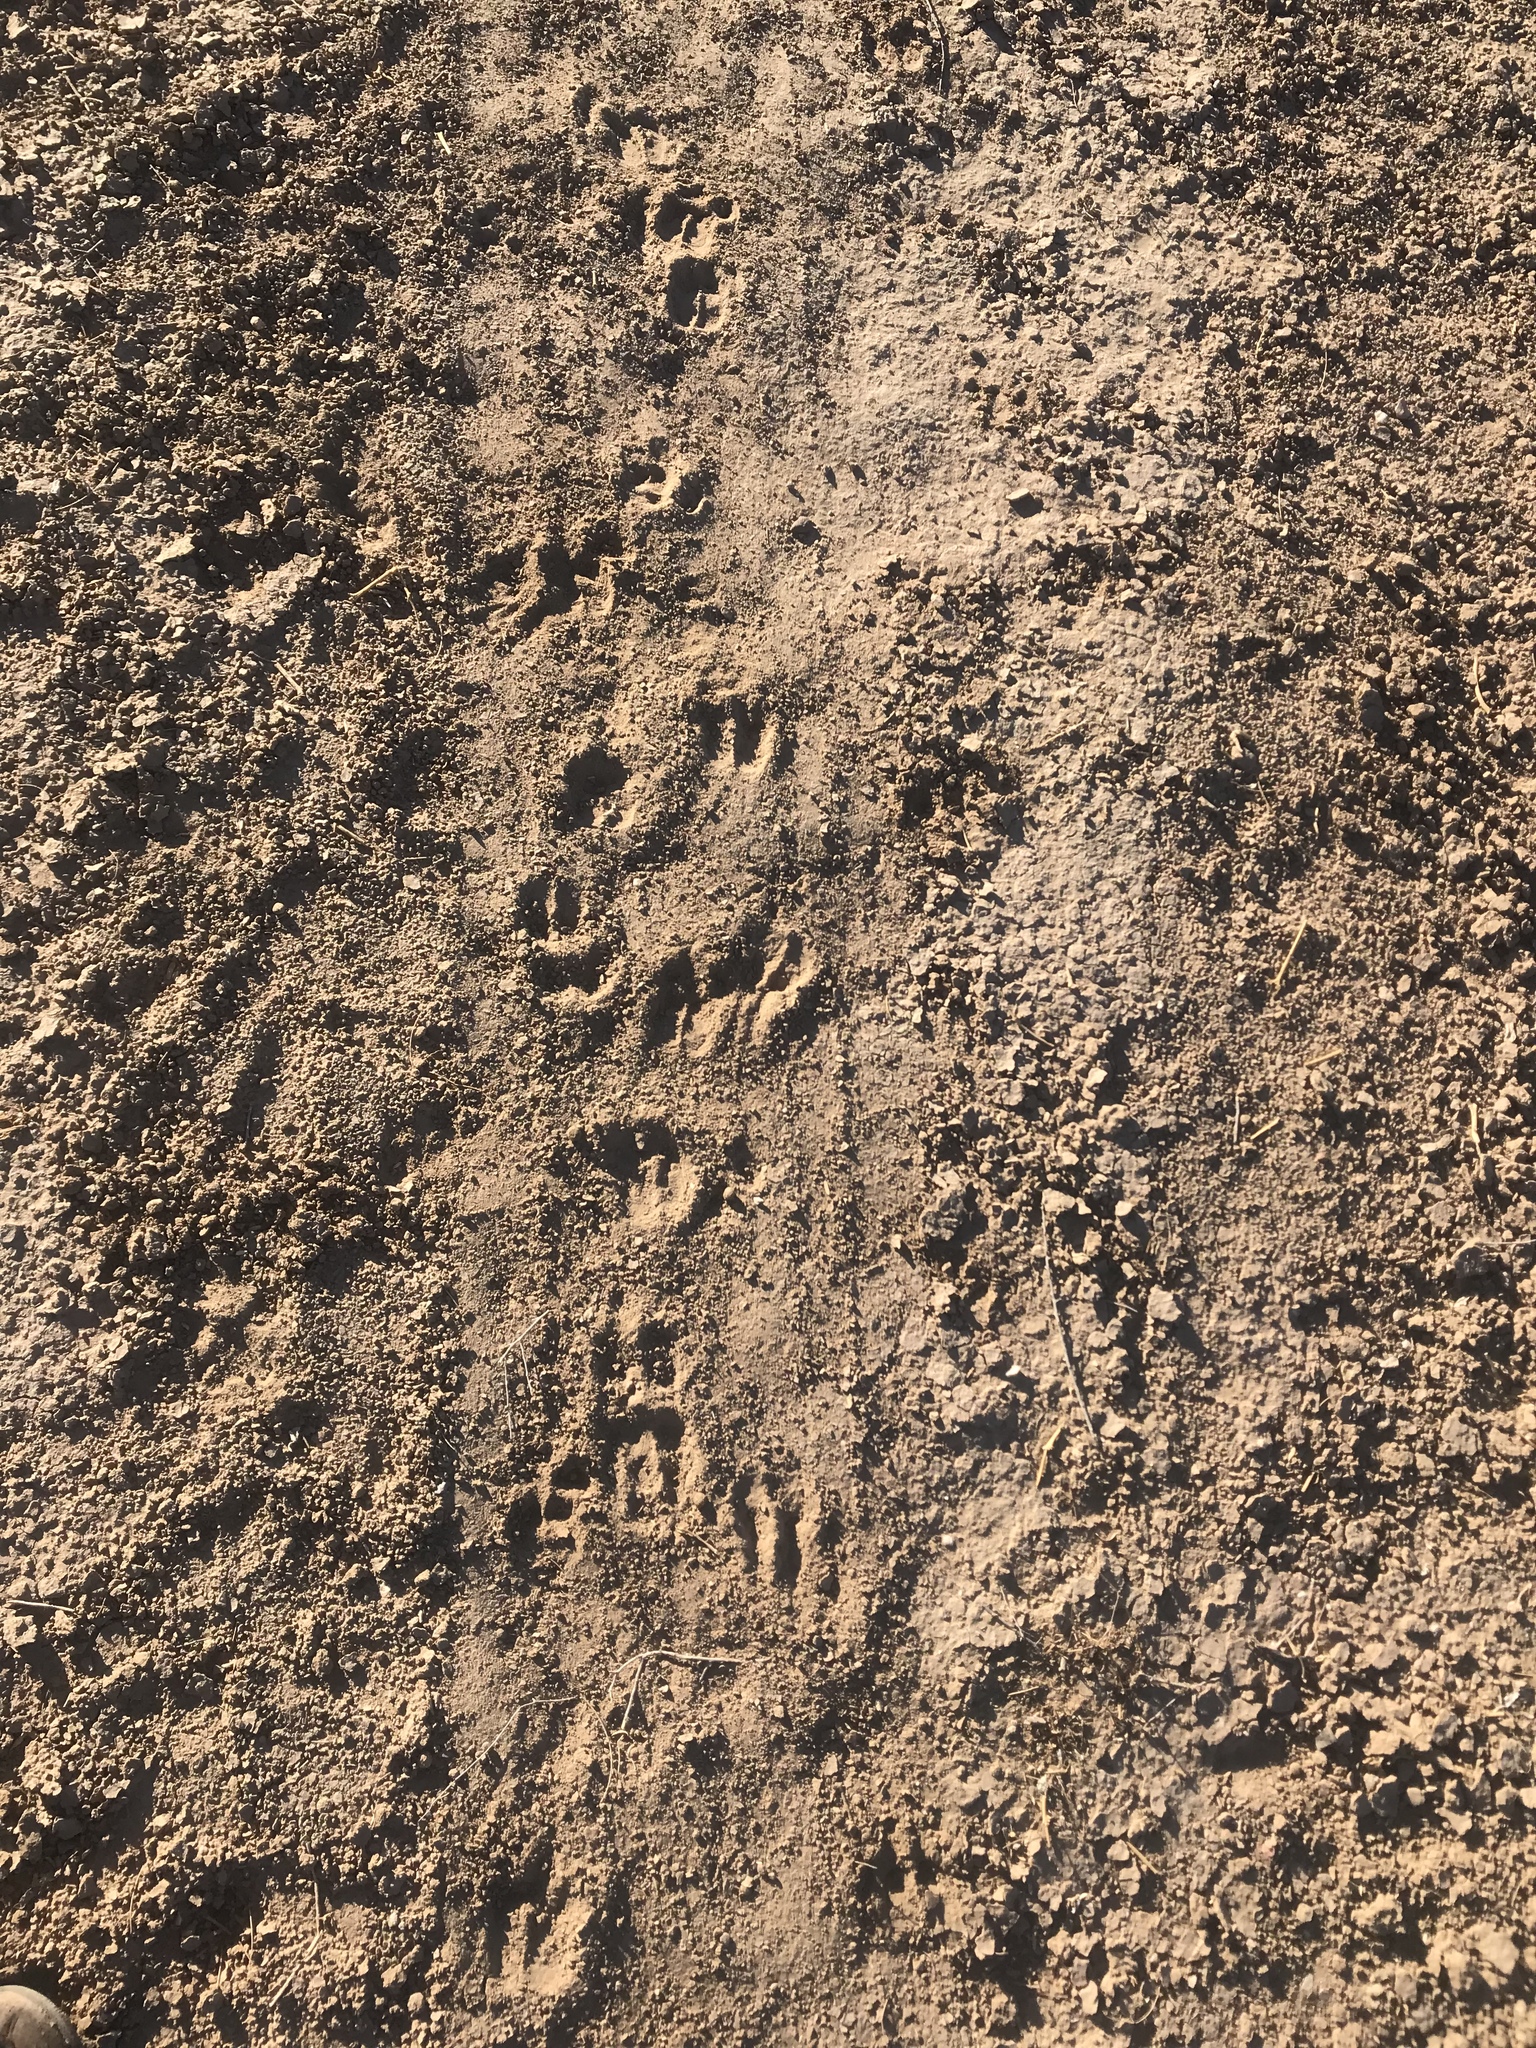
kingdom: Animalia
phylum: Chordata
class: Mammalia
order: Artiodactyla
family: Tayassuidae
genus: Pecari
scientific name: Pecari tajacu
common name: Collared peccary
